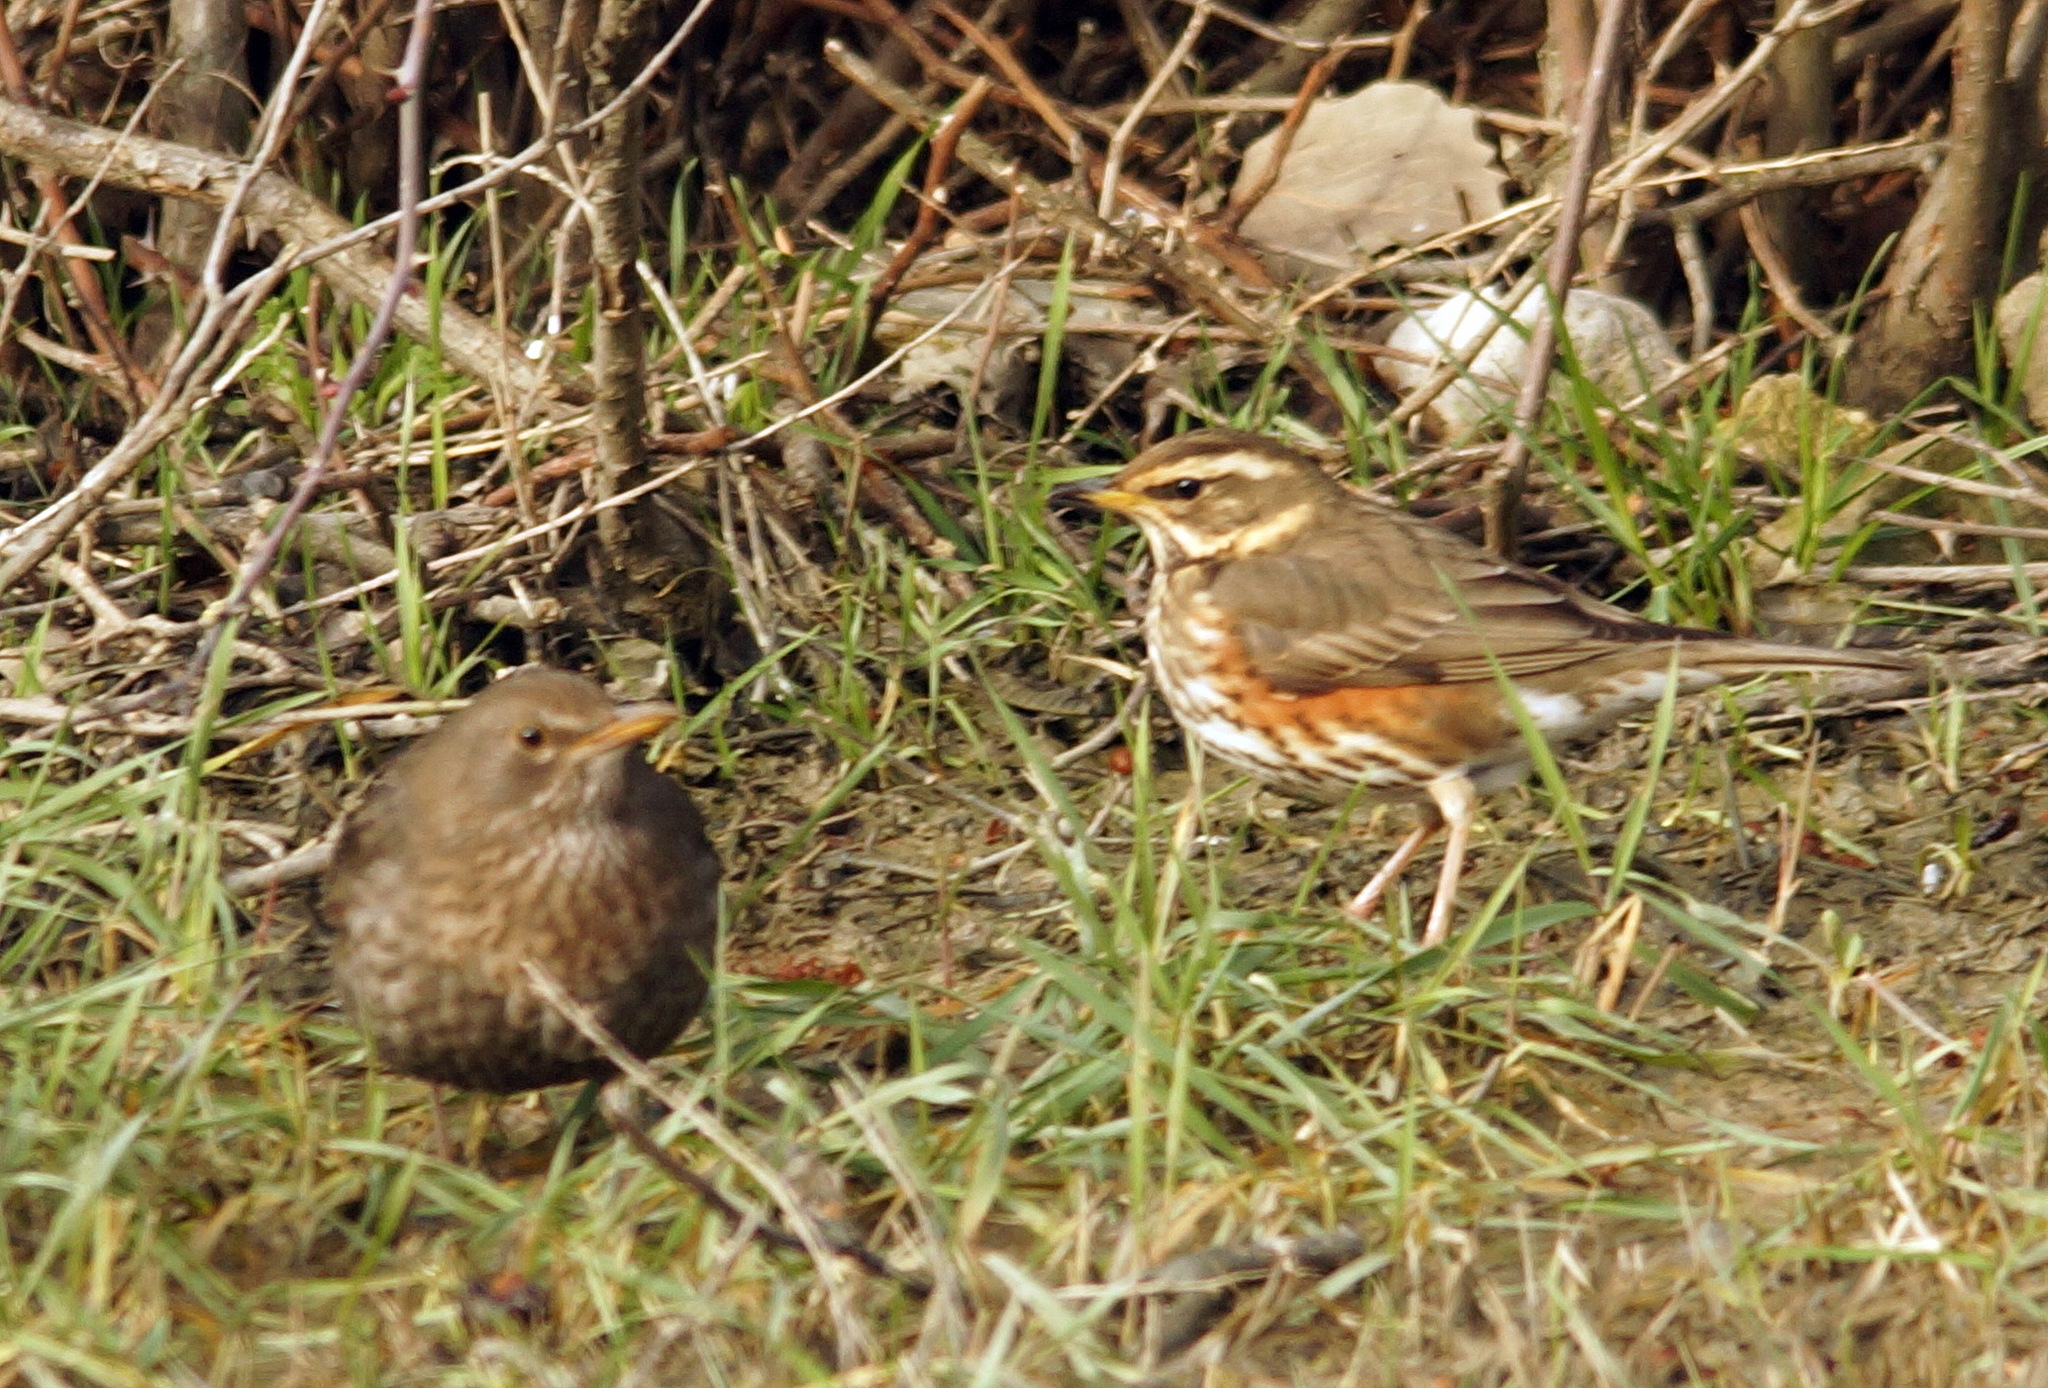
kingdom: Animalia
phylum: Chordata
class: Aves
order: Passeriformes
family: Turdidae
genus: Turdus
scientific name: Turdus iliacus
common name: Redwing
